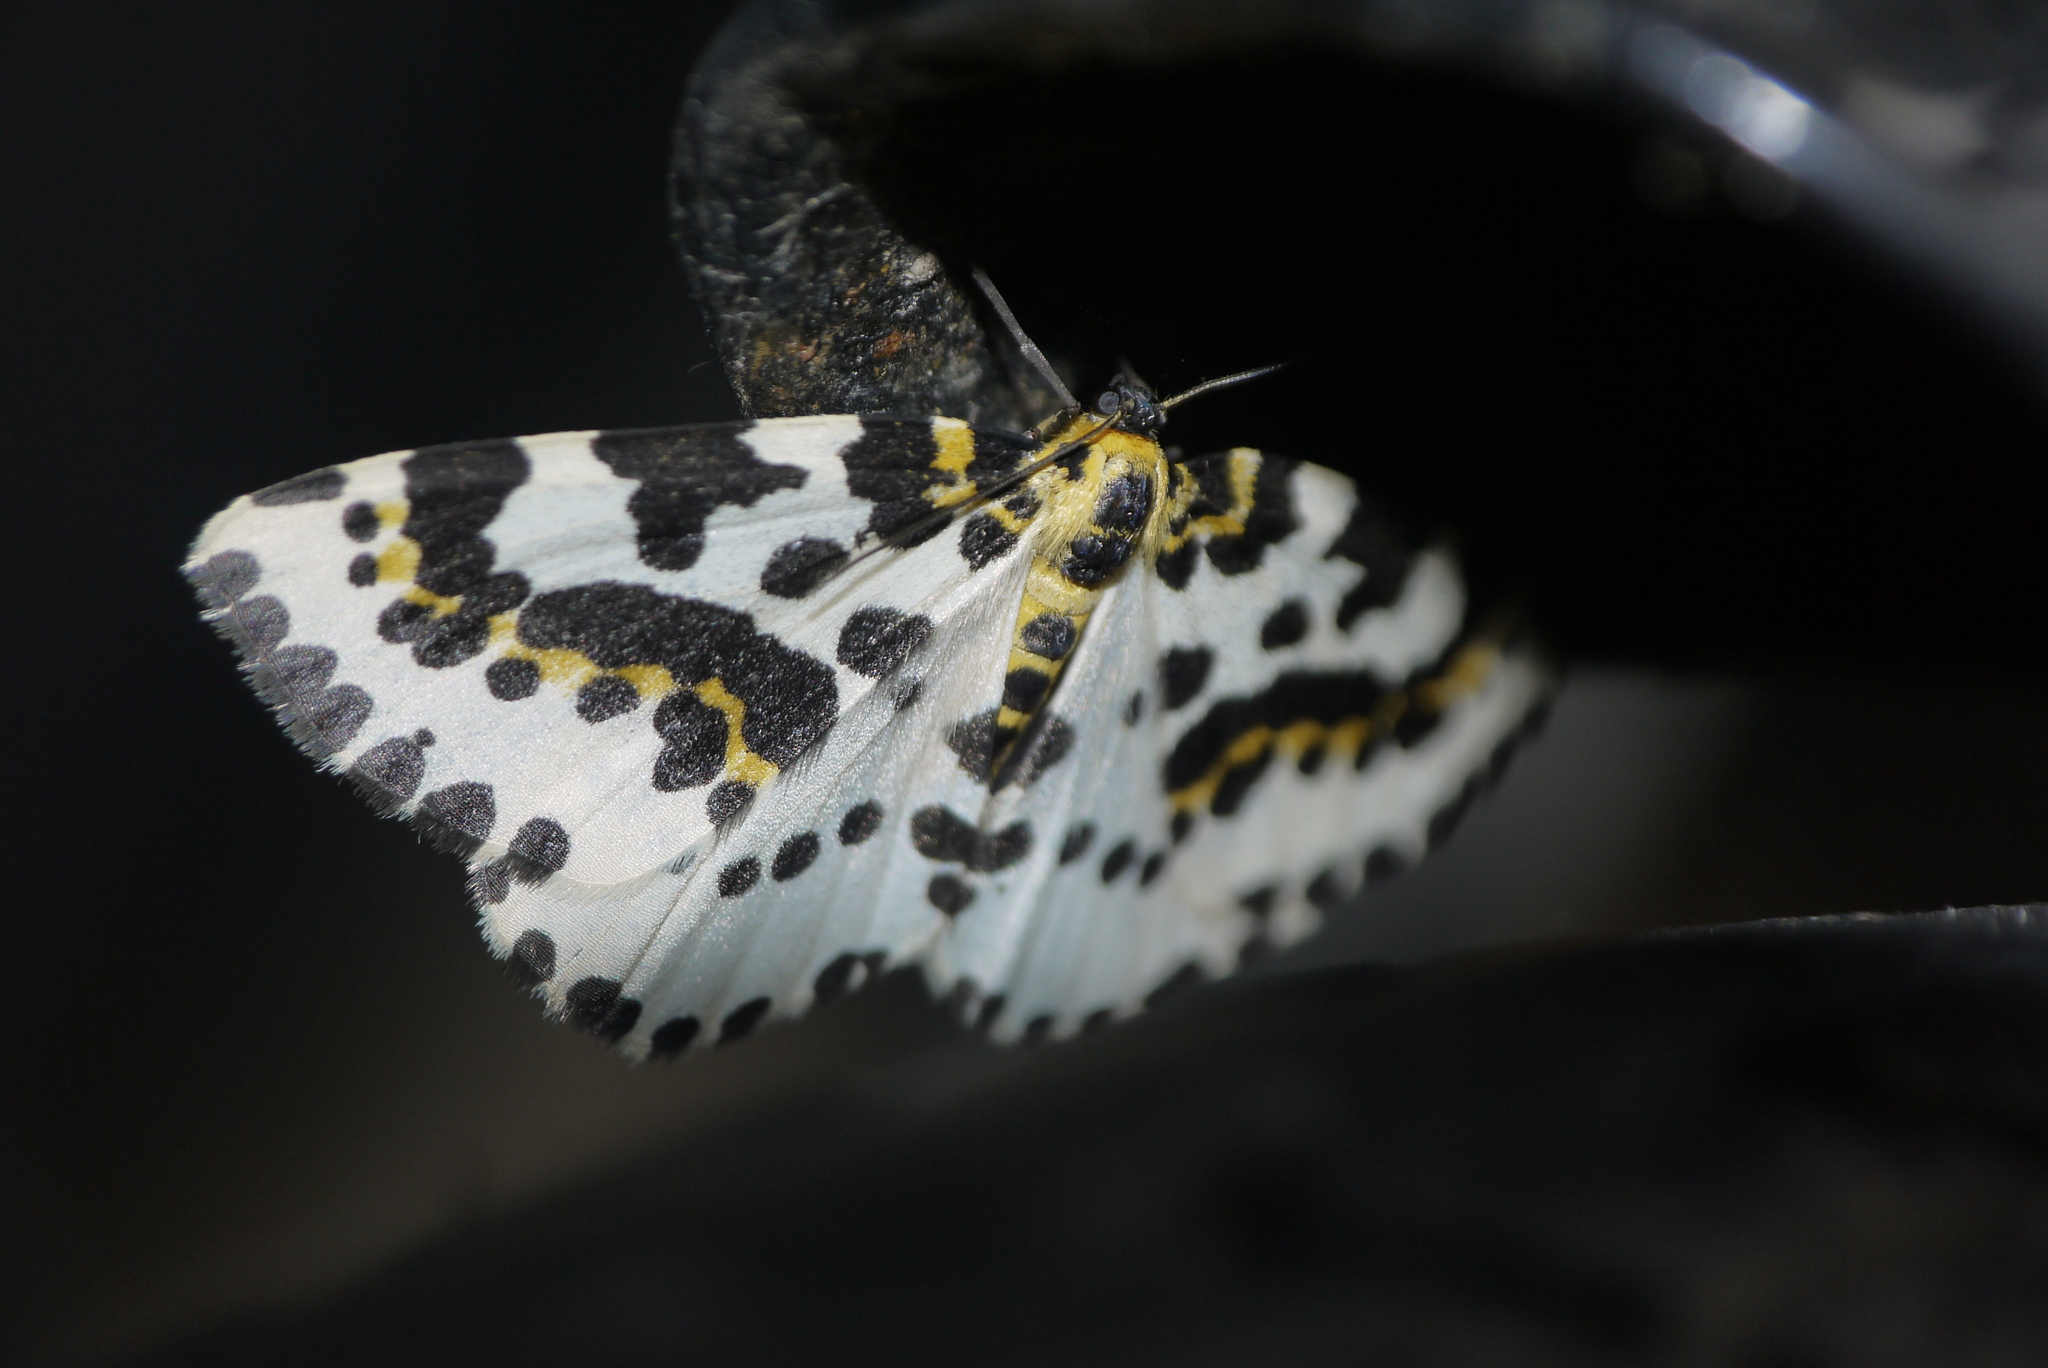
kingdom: Animalia
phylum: Arthropoda
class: Insecta
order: Lepidoptera
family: Geometridae
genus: Abraxas
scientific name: Abraxas grossulariata
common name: Magpie
